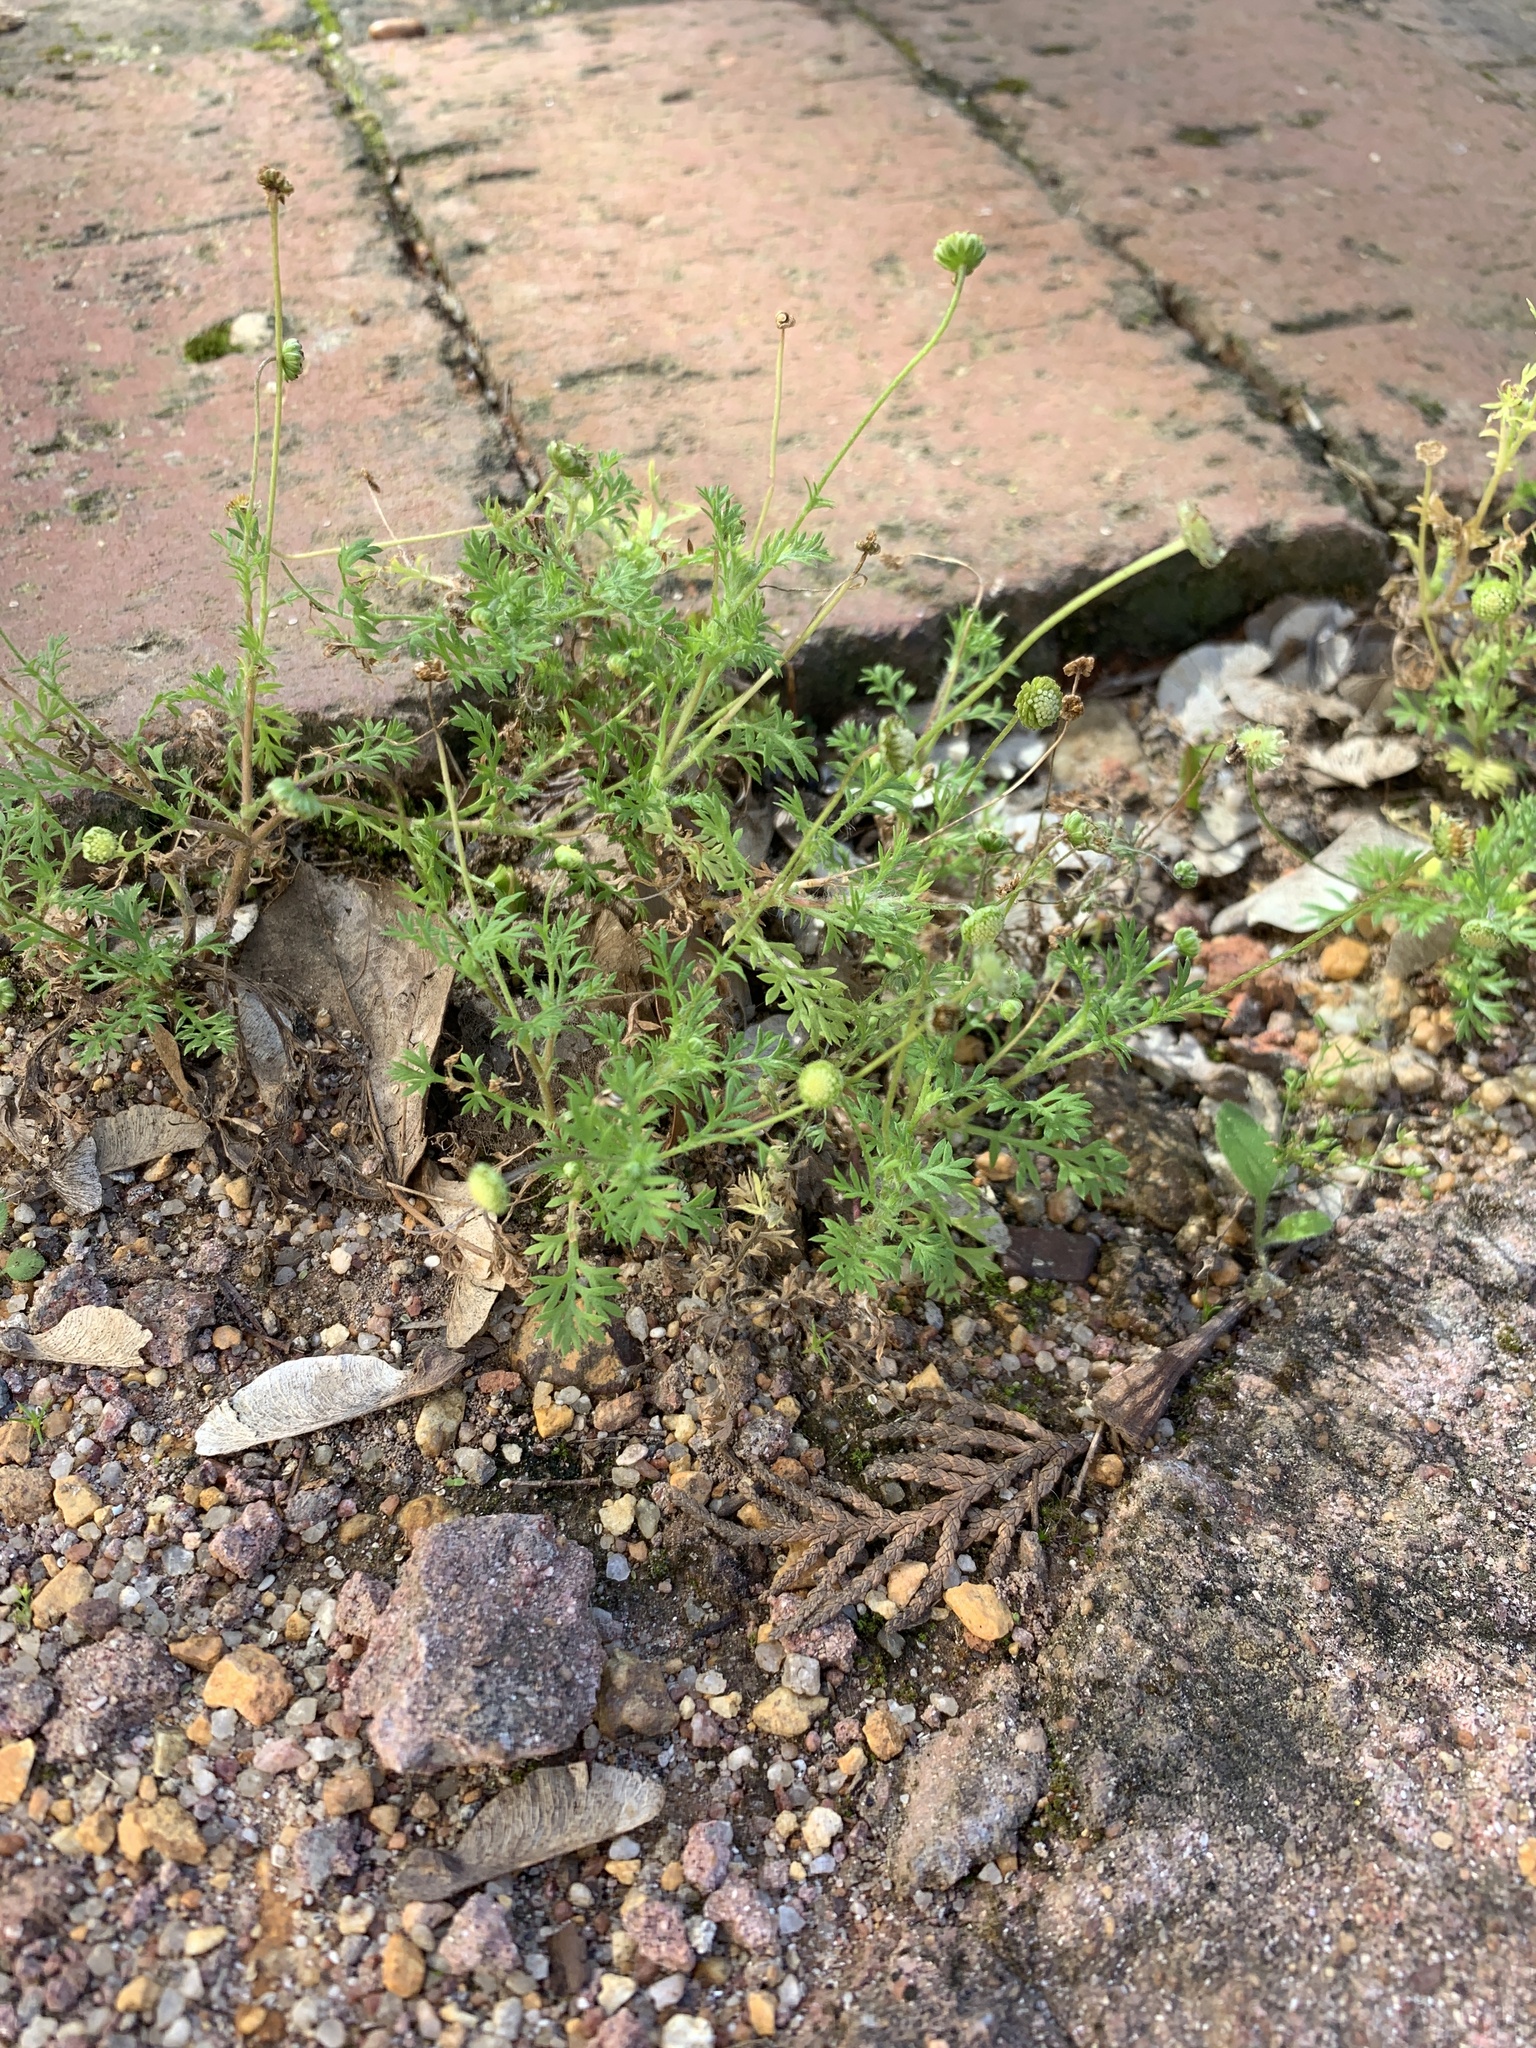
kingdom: Plantae
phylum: Tracheophyta
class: Magnoliopsida
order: Asterales
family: Asteraceae
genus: Cotula
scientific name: Cotula australis
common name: Australian waterbuttons
